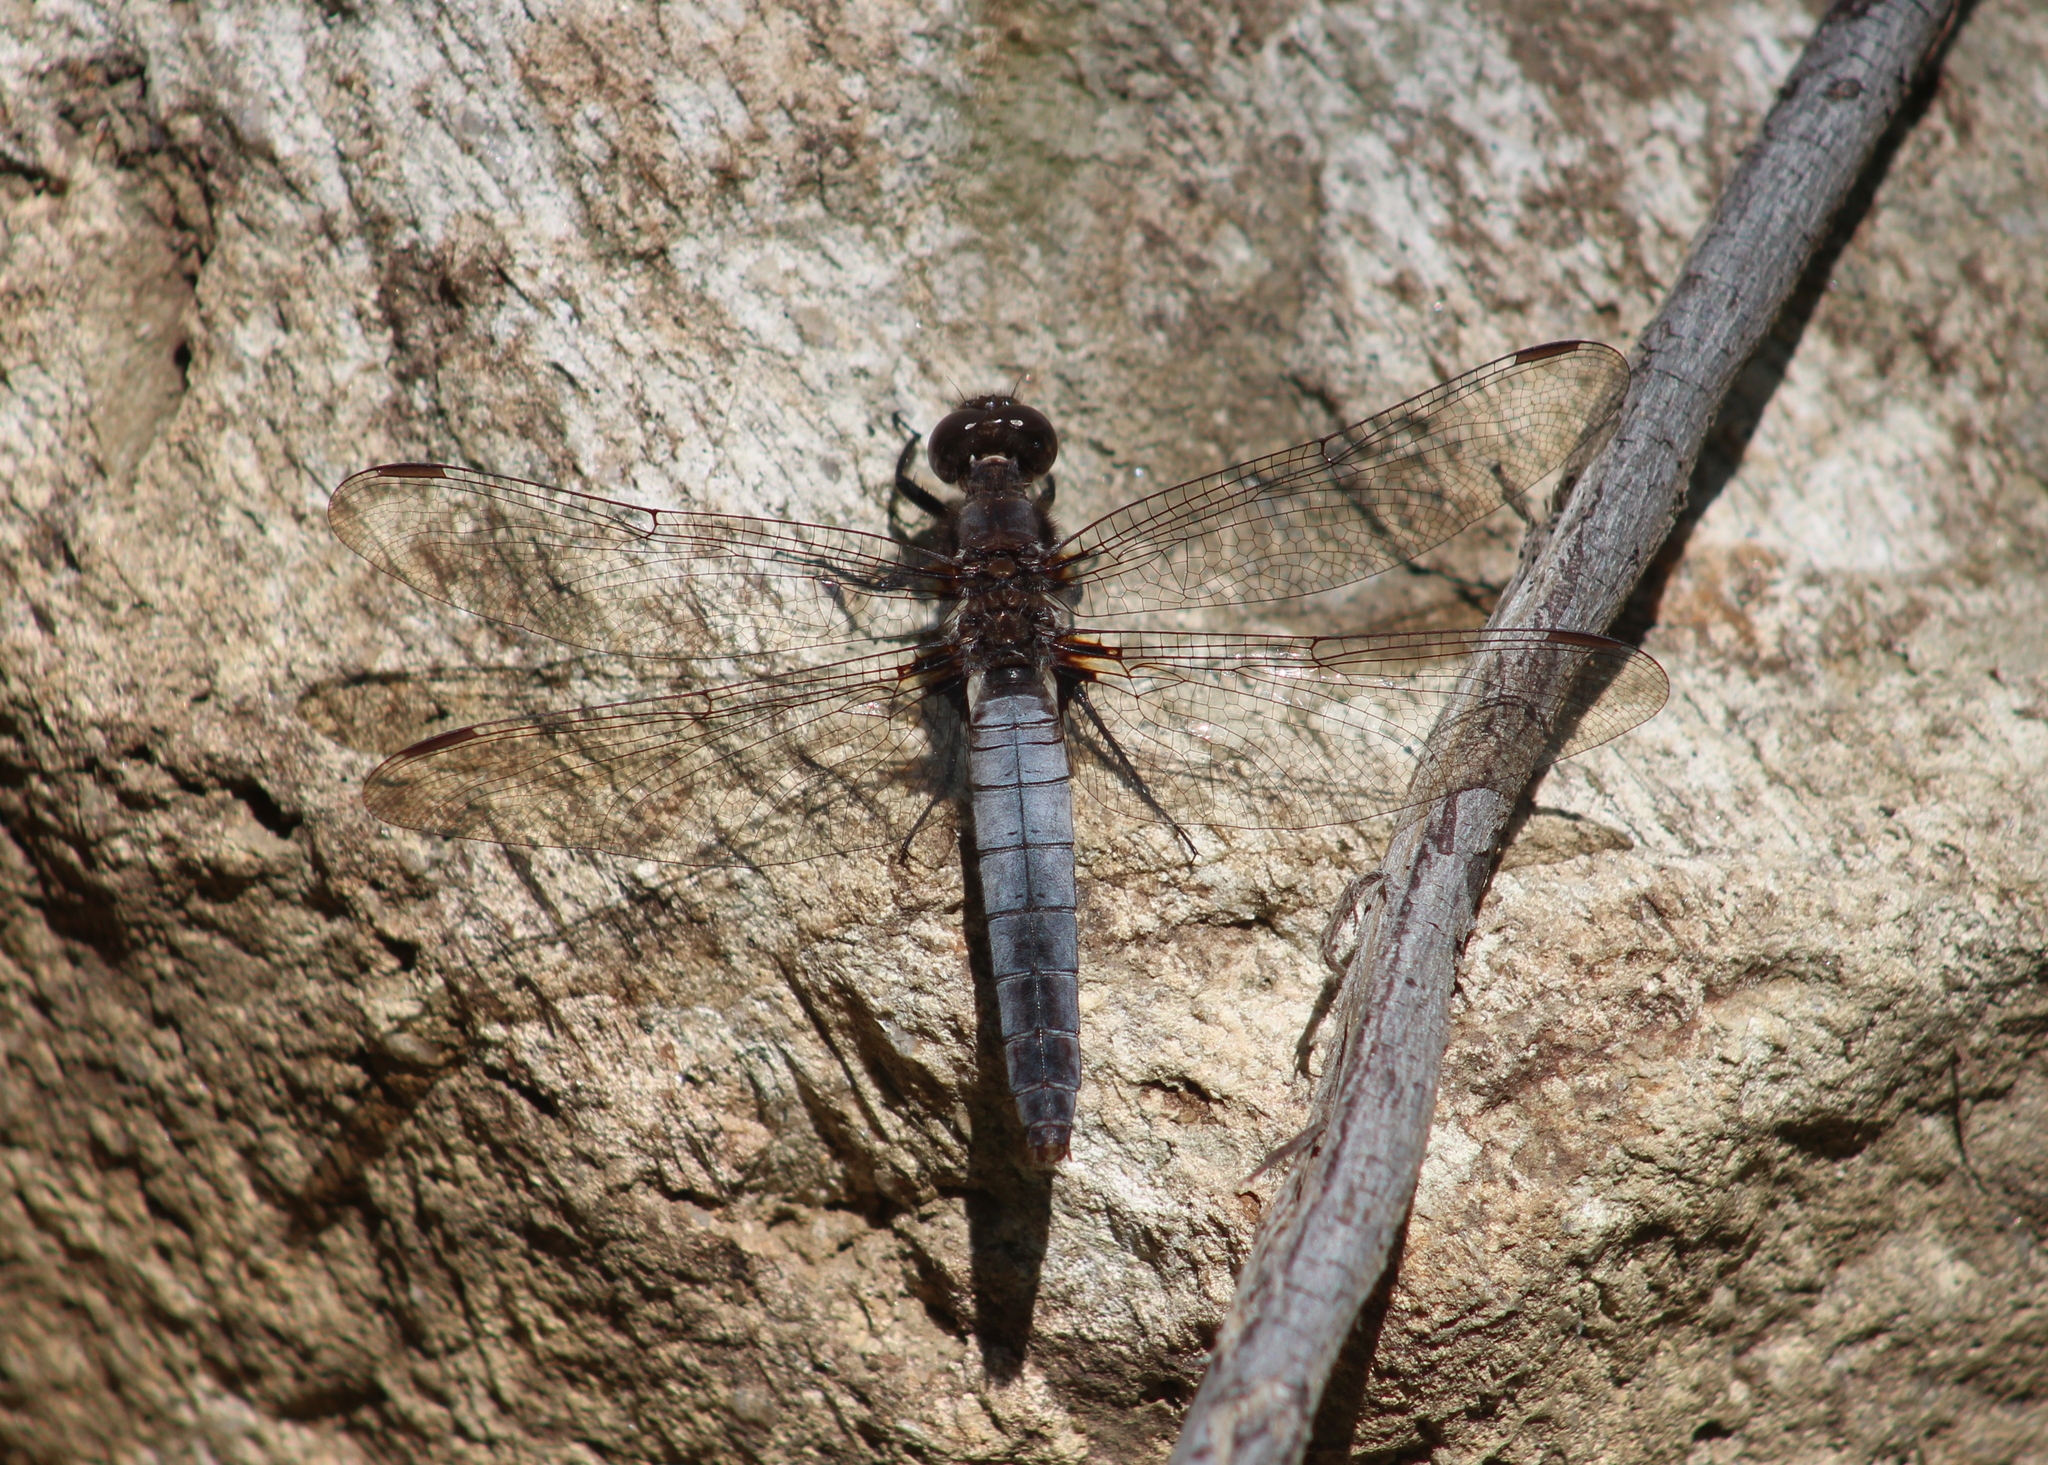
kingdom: Animalia
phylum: Arthropoda
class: Insecta
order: Odonata
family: Libellulidae
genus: Ladona
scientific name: Ladona julia
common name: Chalk-fronted corporal
